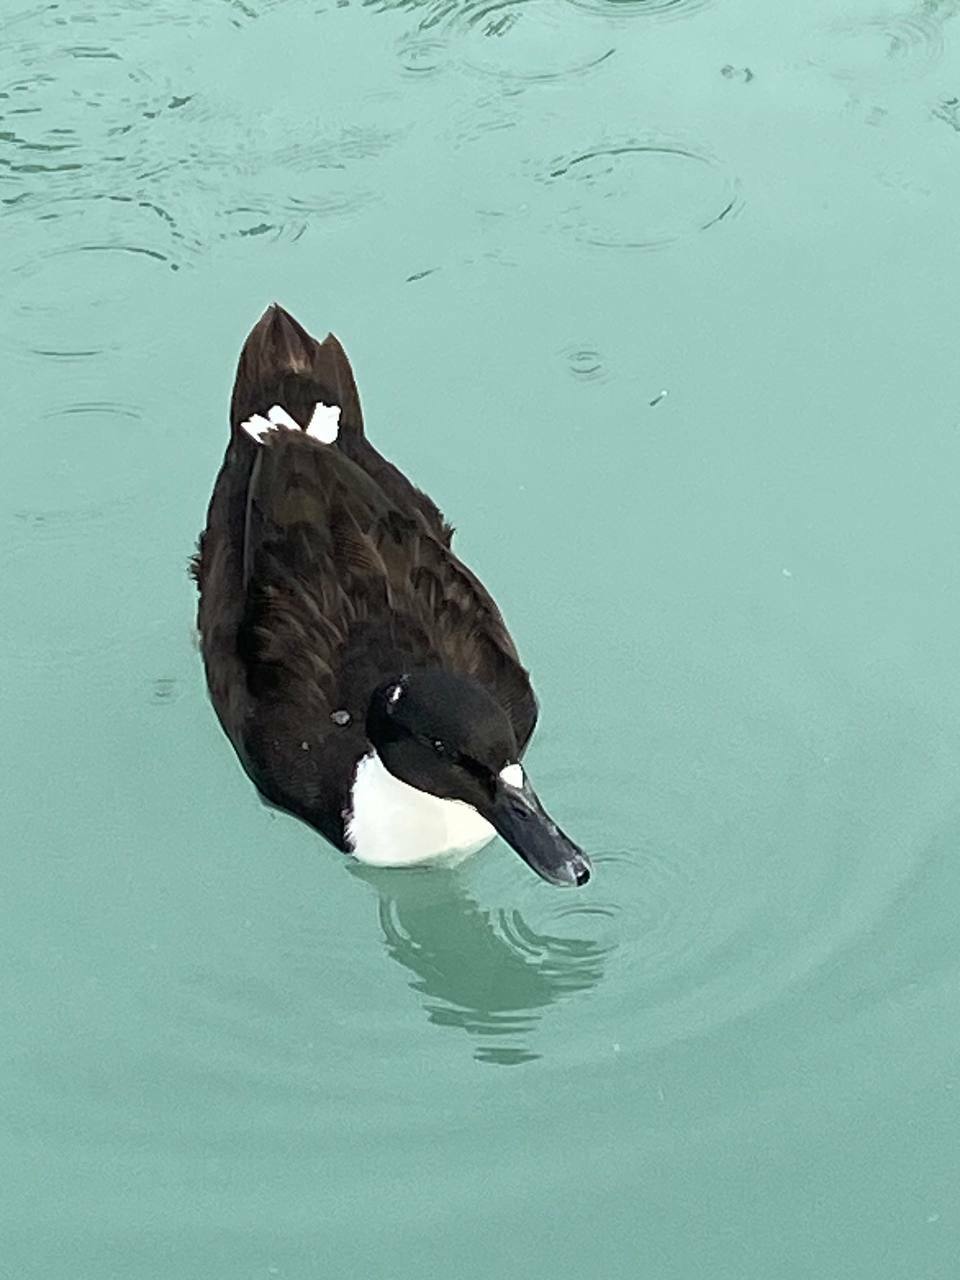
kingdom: Animalia
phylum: Chordata
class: Aves
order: Anseriformes
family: Anatidae
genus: Anas
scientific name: Anas platyrhynchos
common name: Mallard
